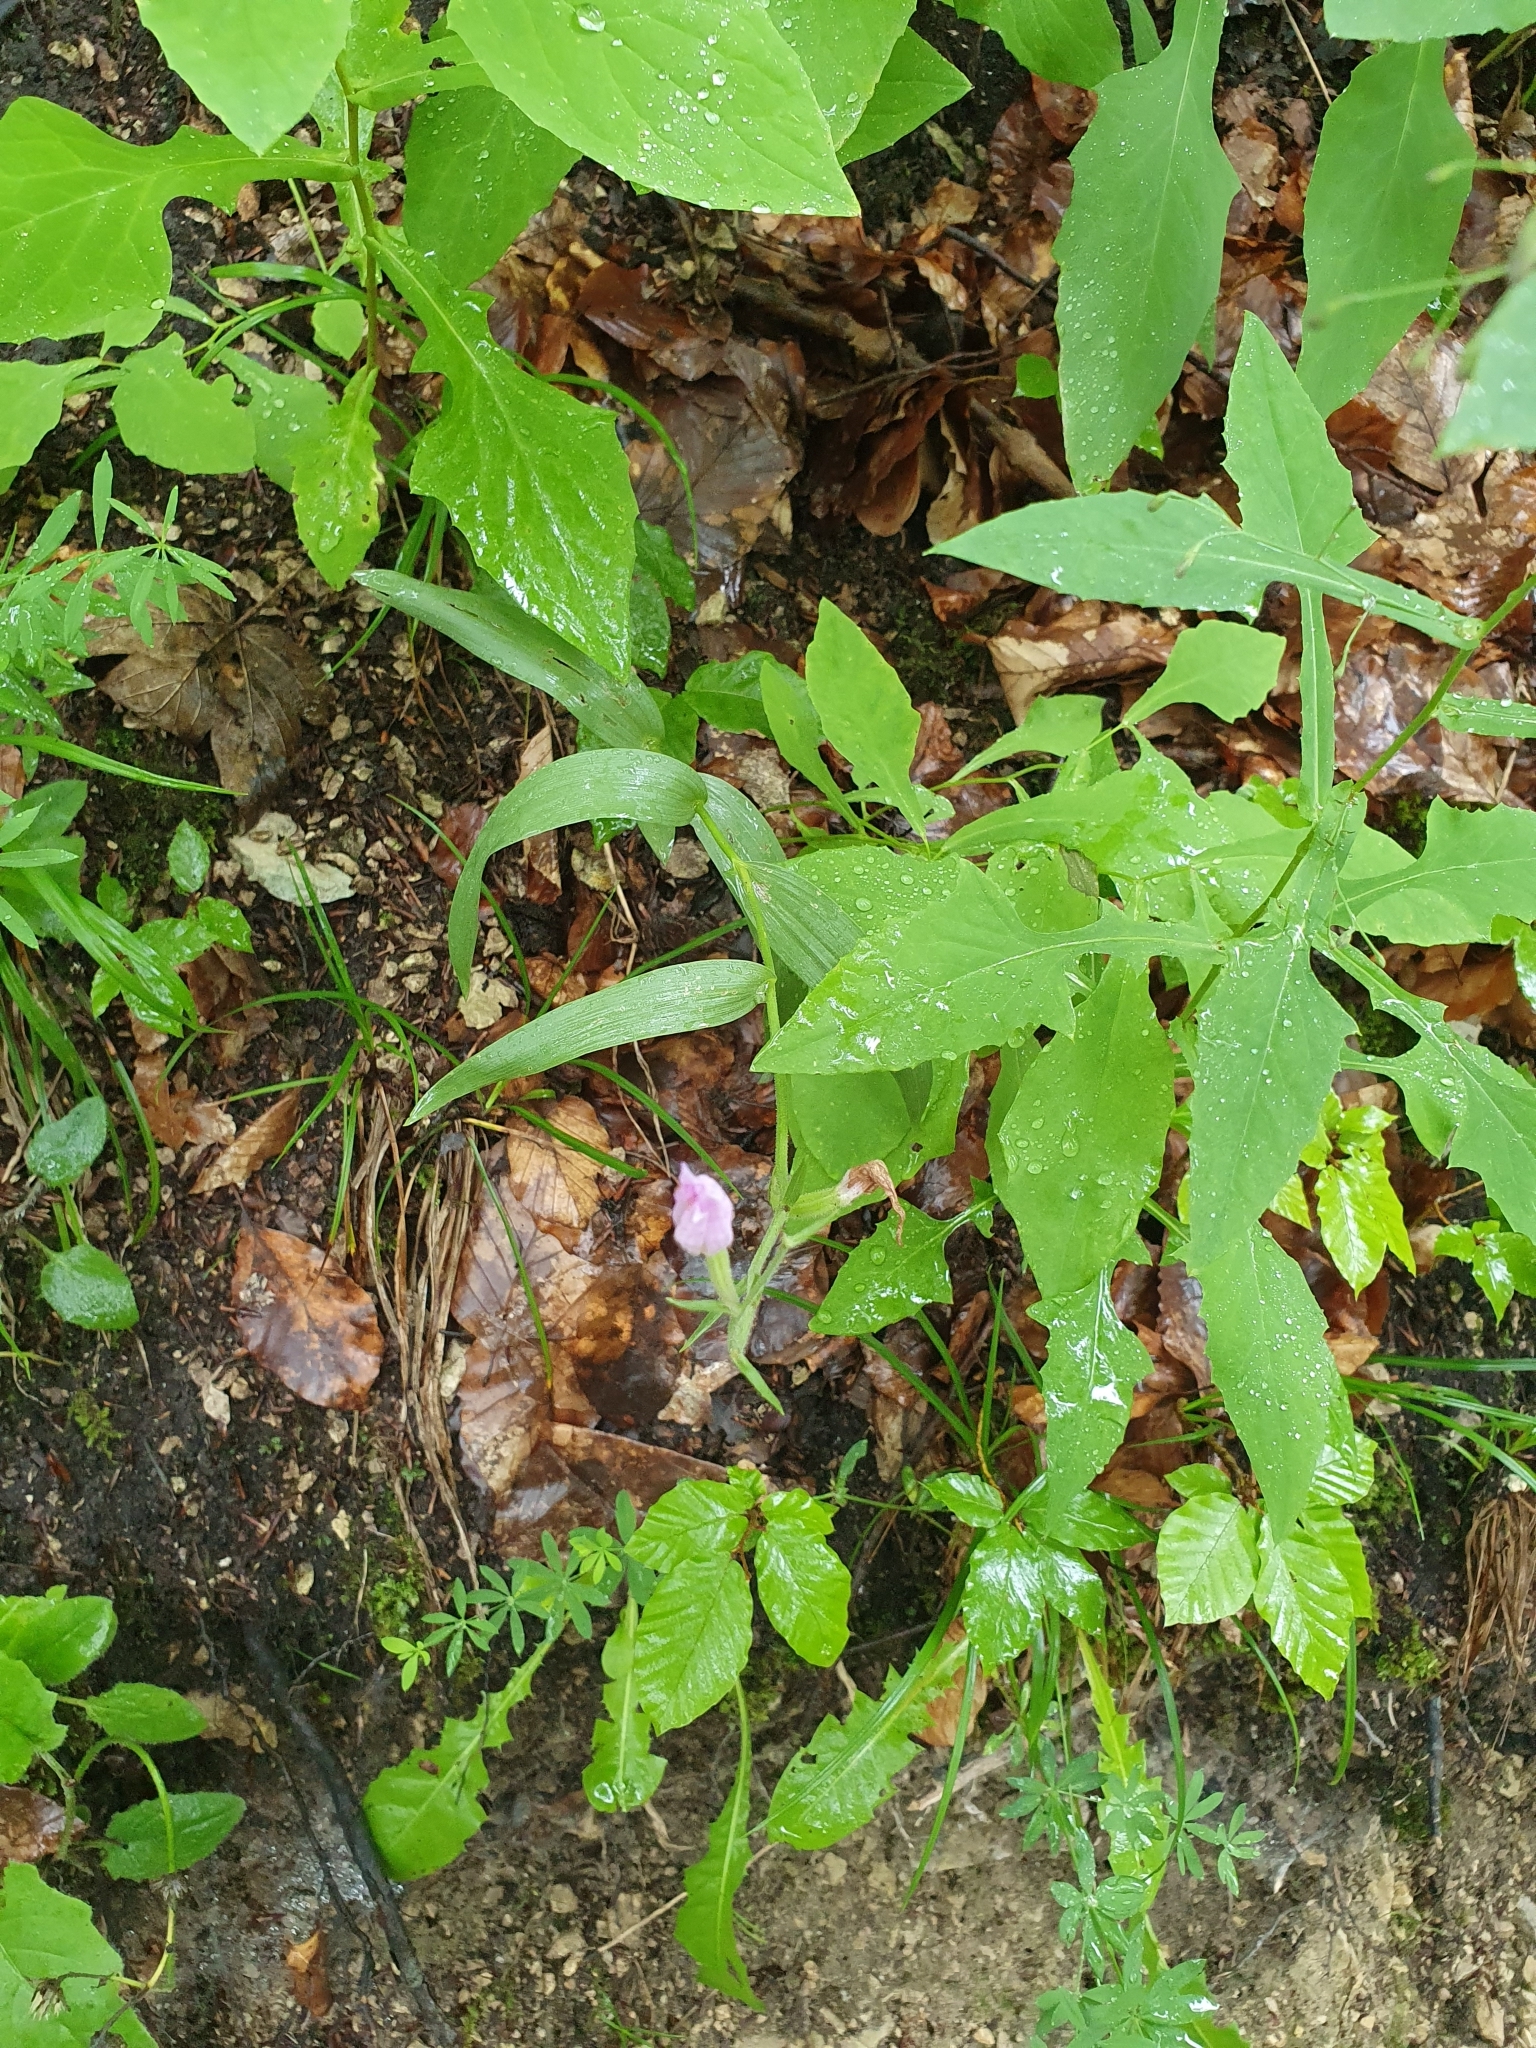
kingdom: Plantae
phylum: Tracheophyta
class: Liliopsida
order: Asparagales
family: Orchidaceae
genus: Cephalanthera
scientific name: Cephalanthera rubra
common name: Red helleborine
